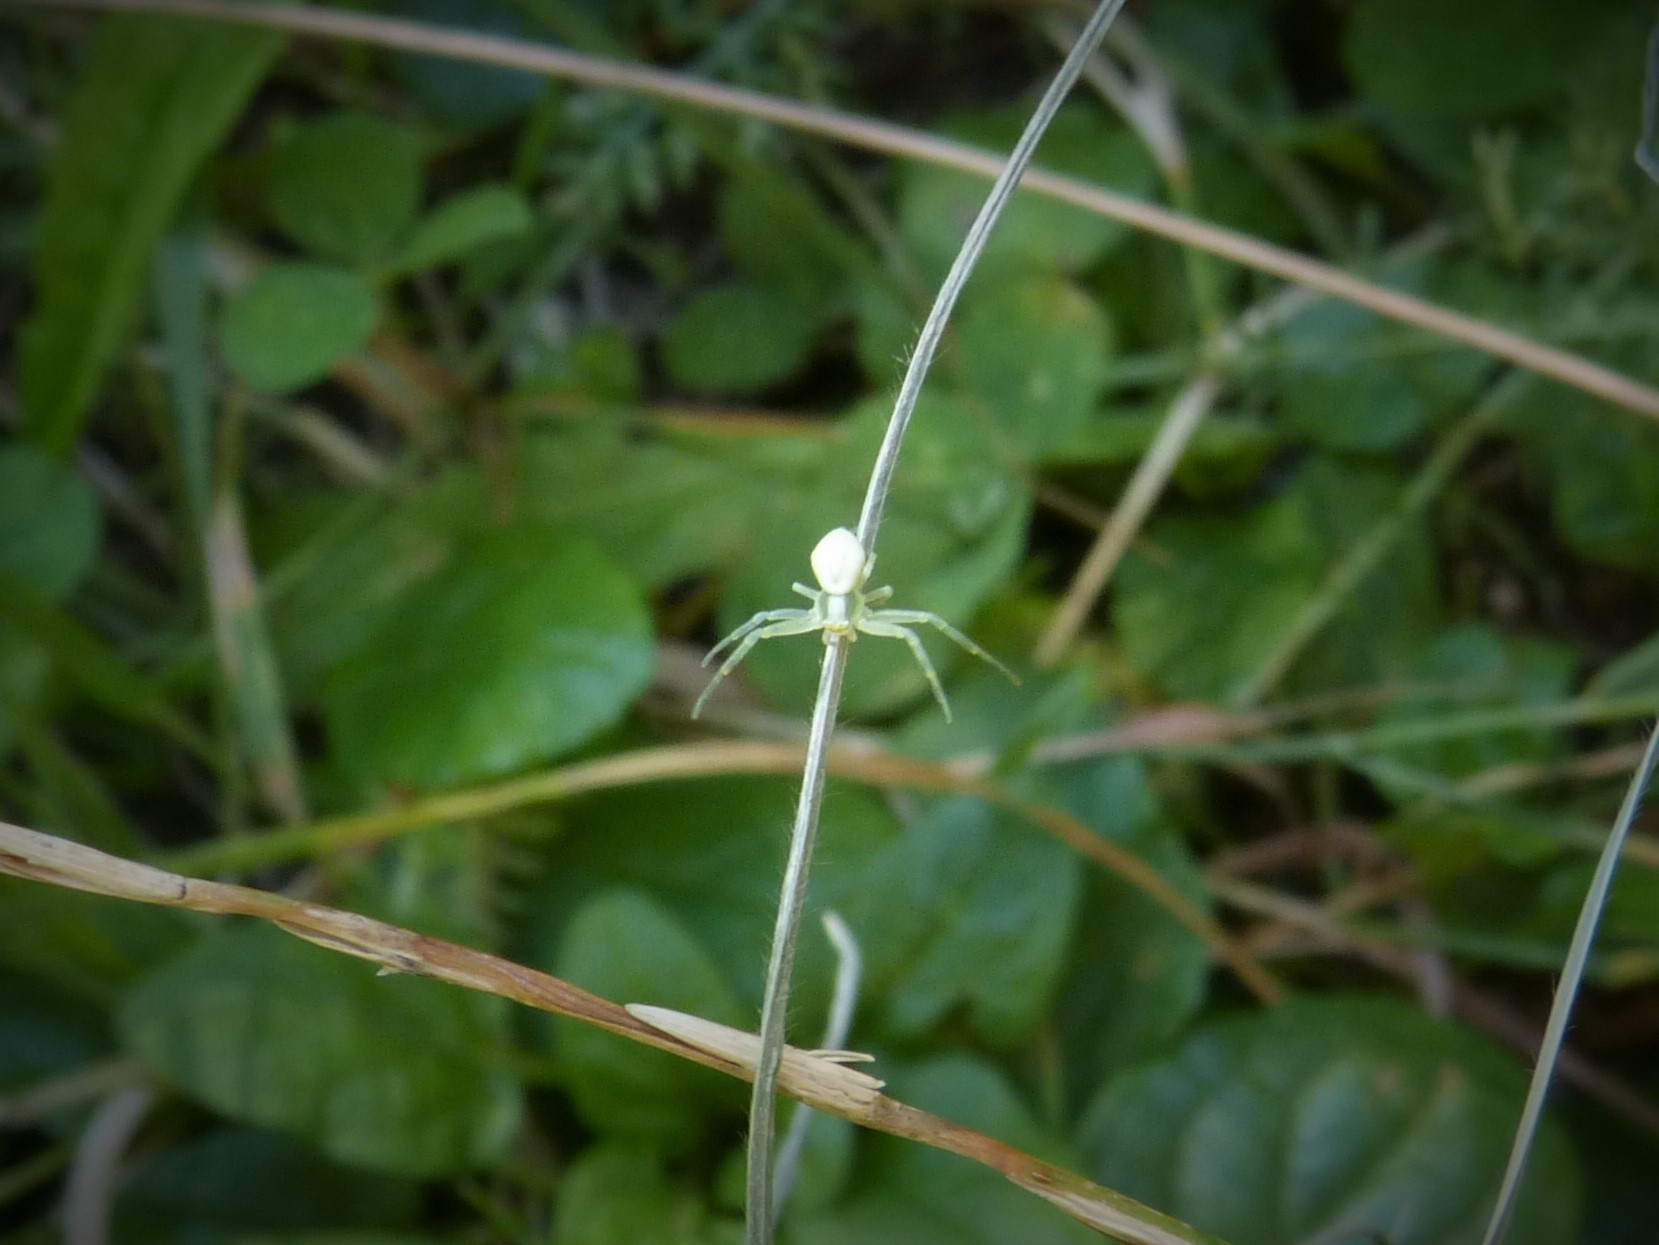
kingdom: Animalia
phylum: Arthropoda
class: Arachnida
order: Araneae
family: Thomisidae
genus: Misumena
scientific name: Misumena vatia
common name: Goldenrod crab spider
